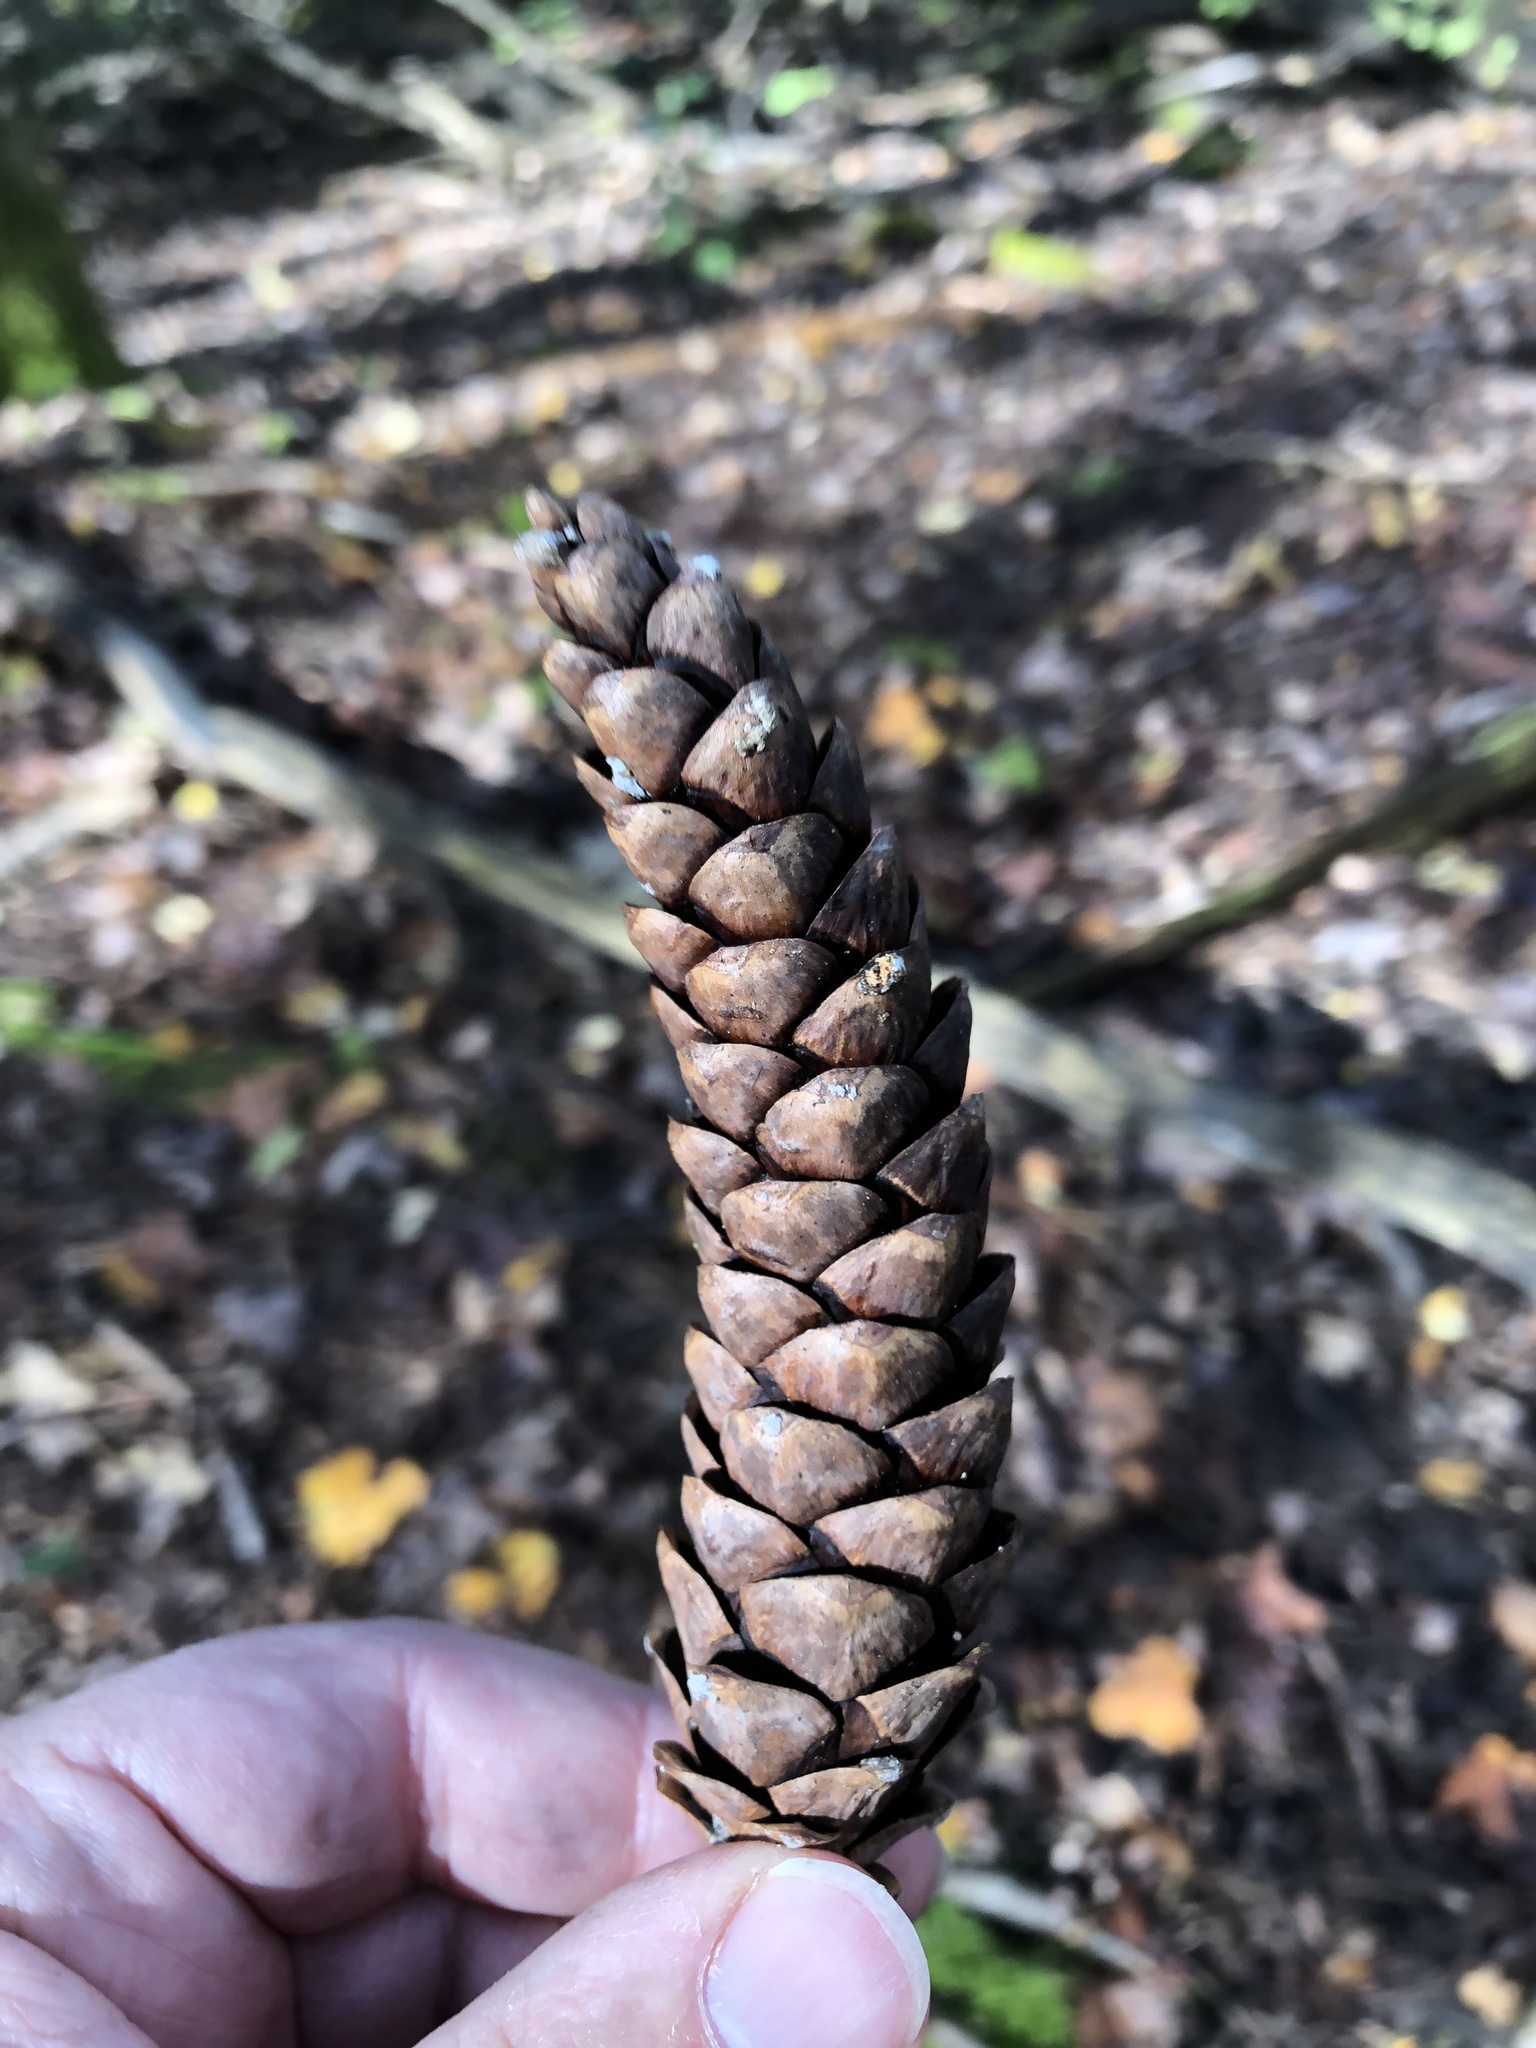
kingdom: Plantae
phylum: Tracheophyta
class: Pinopsida
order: Pinales
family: Pinaceae
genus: Pinus
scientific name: Pinus strobus
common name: Weymouth pine
